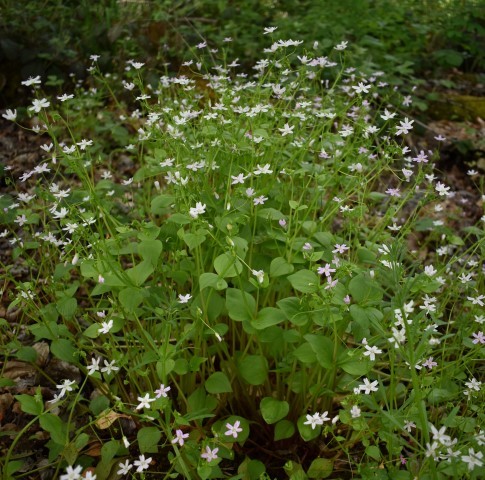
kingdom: Plantae
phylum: Tracheophyta
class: Magnoliopsida
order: Caryophyllales
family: Montiaceae
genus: Claytonia
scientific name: Claytonia sibirica
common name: Pink purslane
